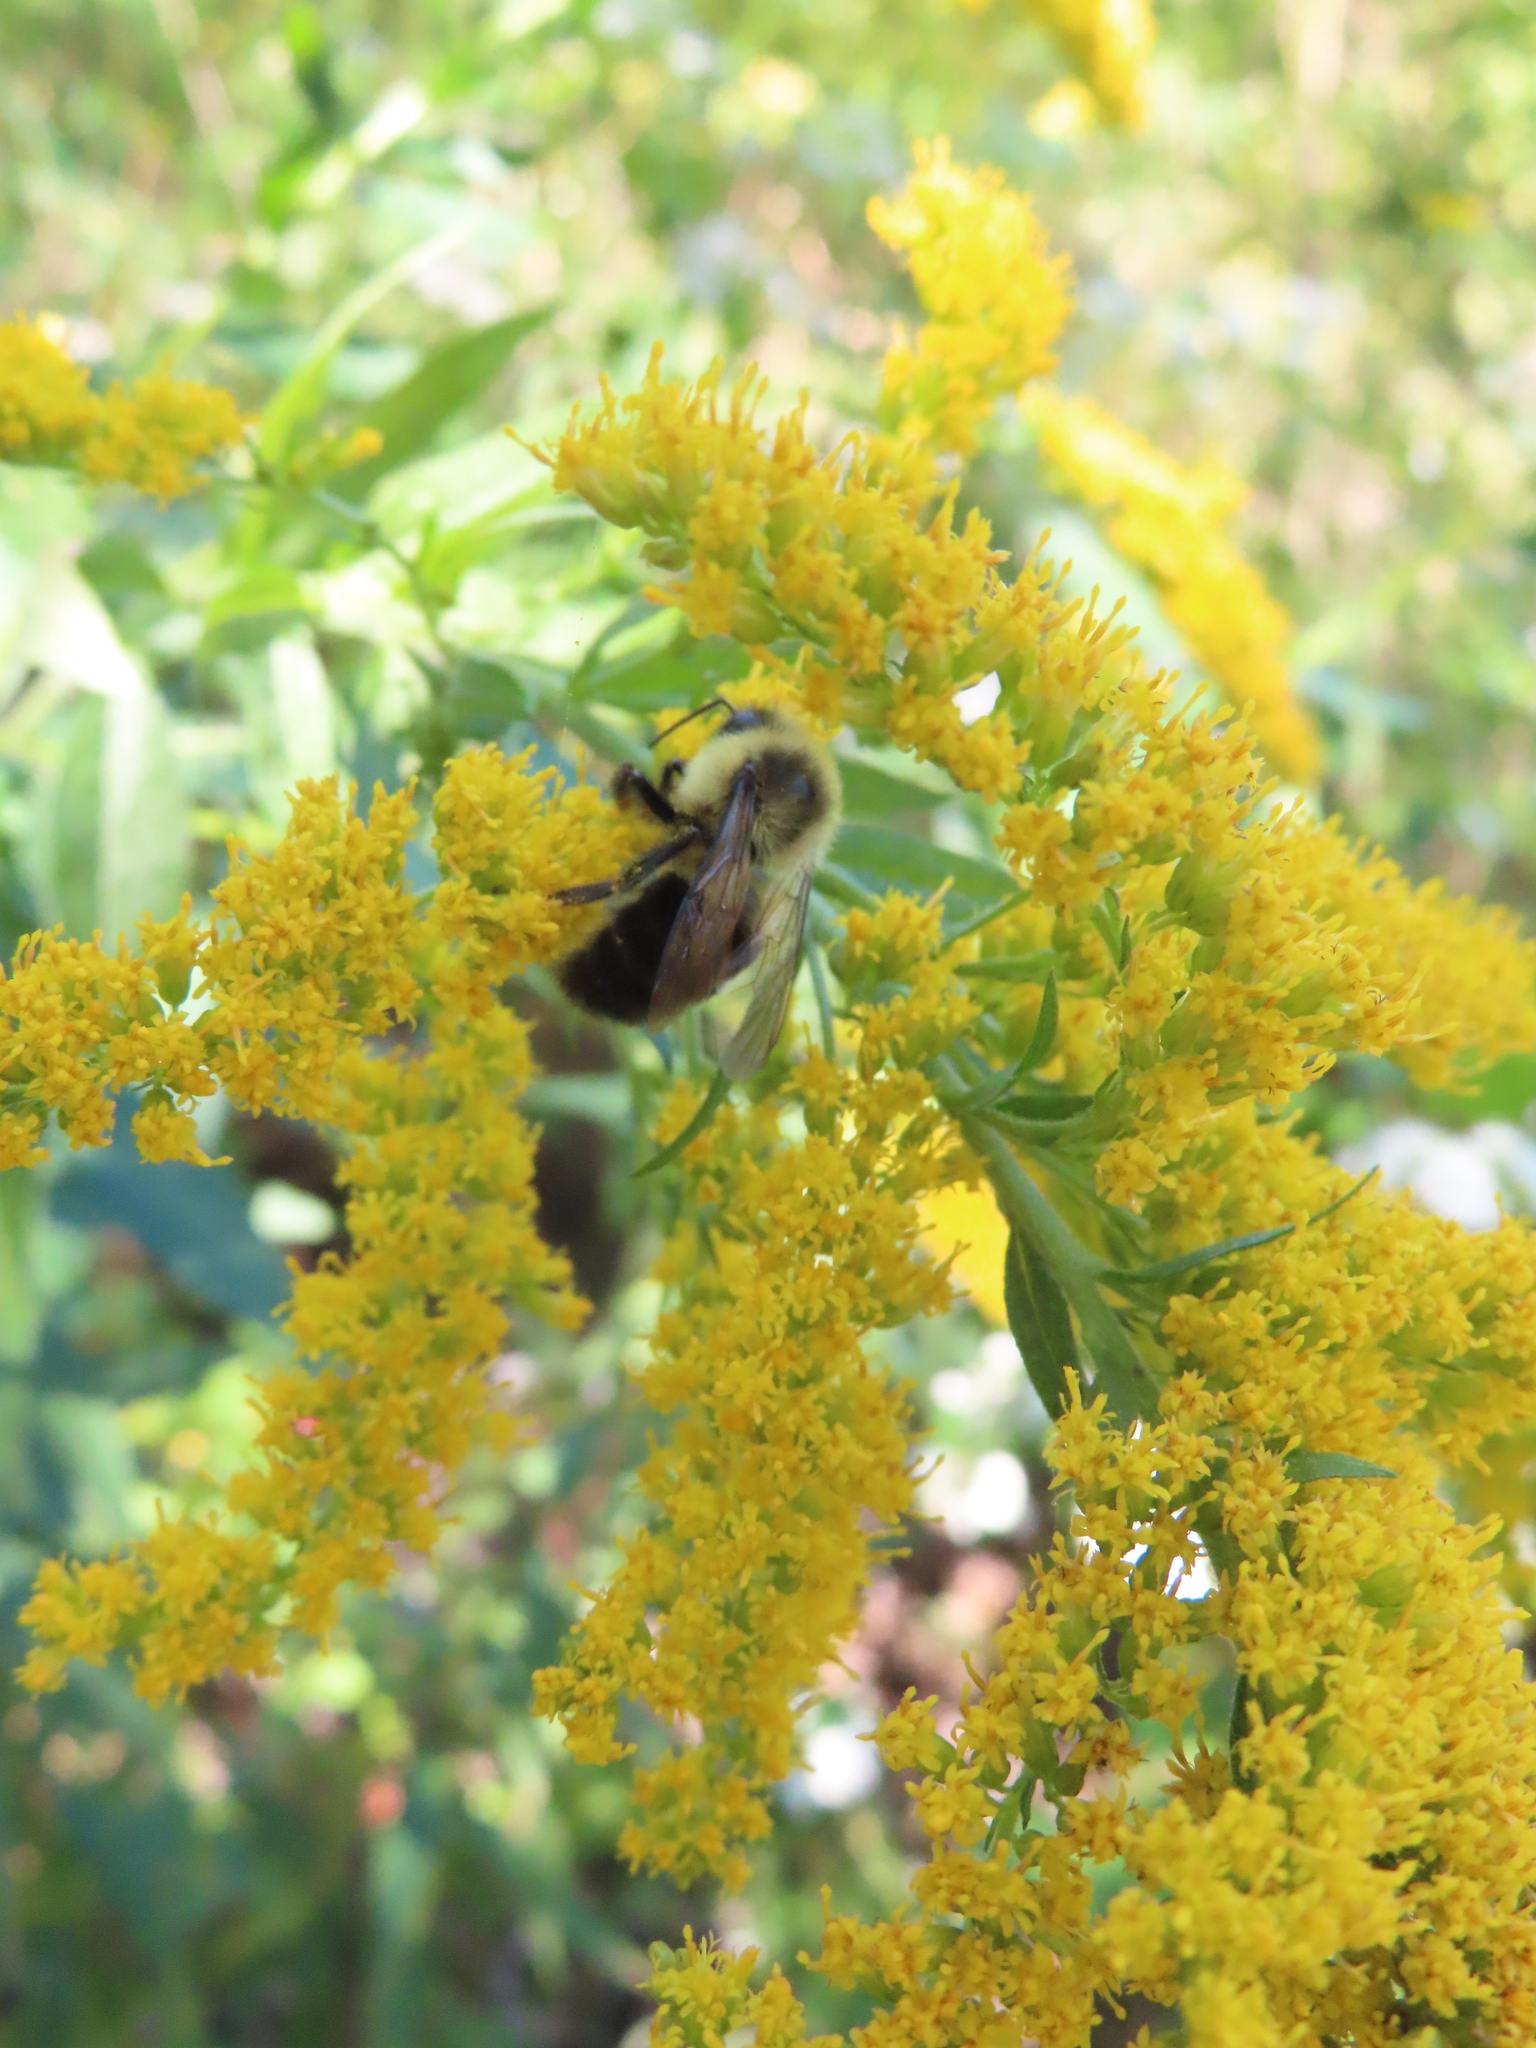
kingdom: Animalia
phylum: Arthropoda
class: Insecta
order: Hymenoptera
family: Apidae
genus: Bombus
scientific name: Bombus impatiens
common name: Common eastern bumble bee
